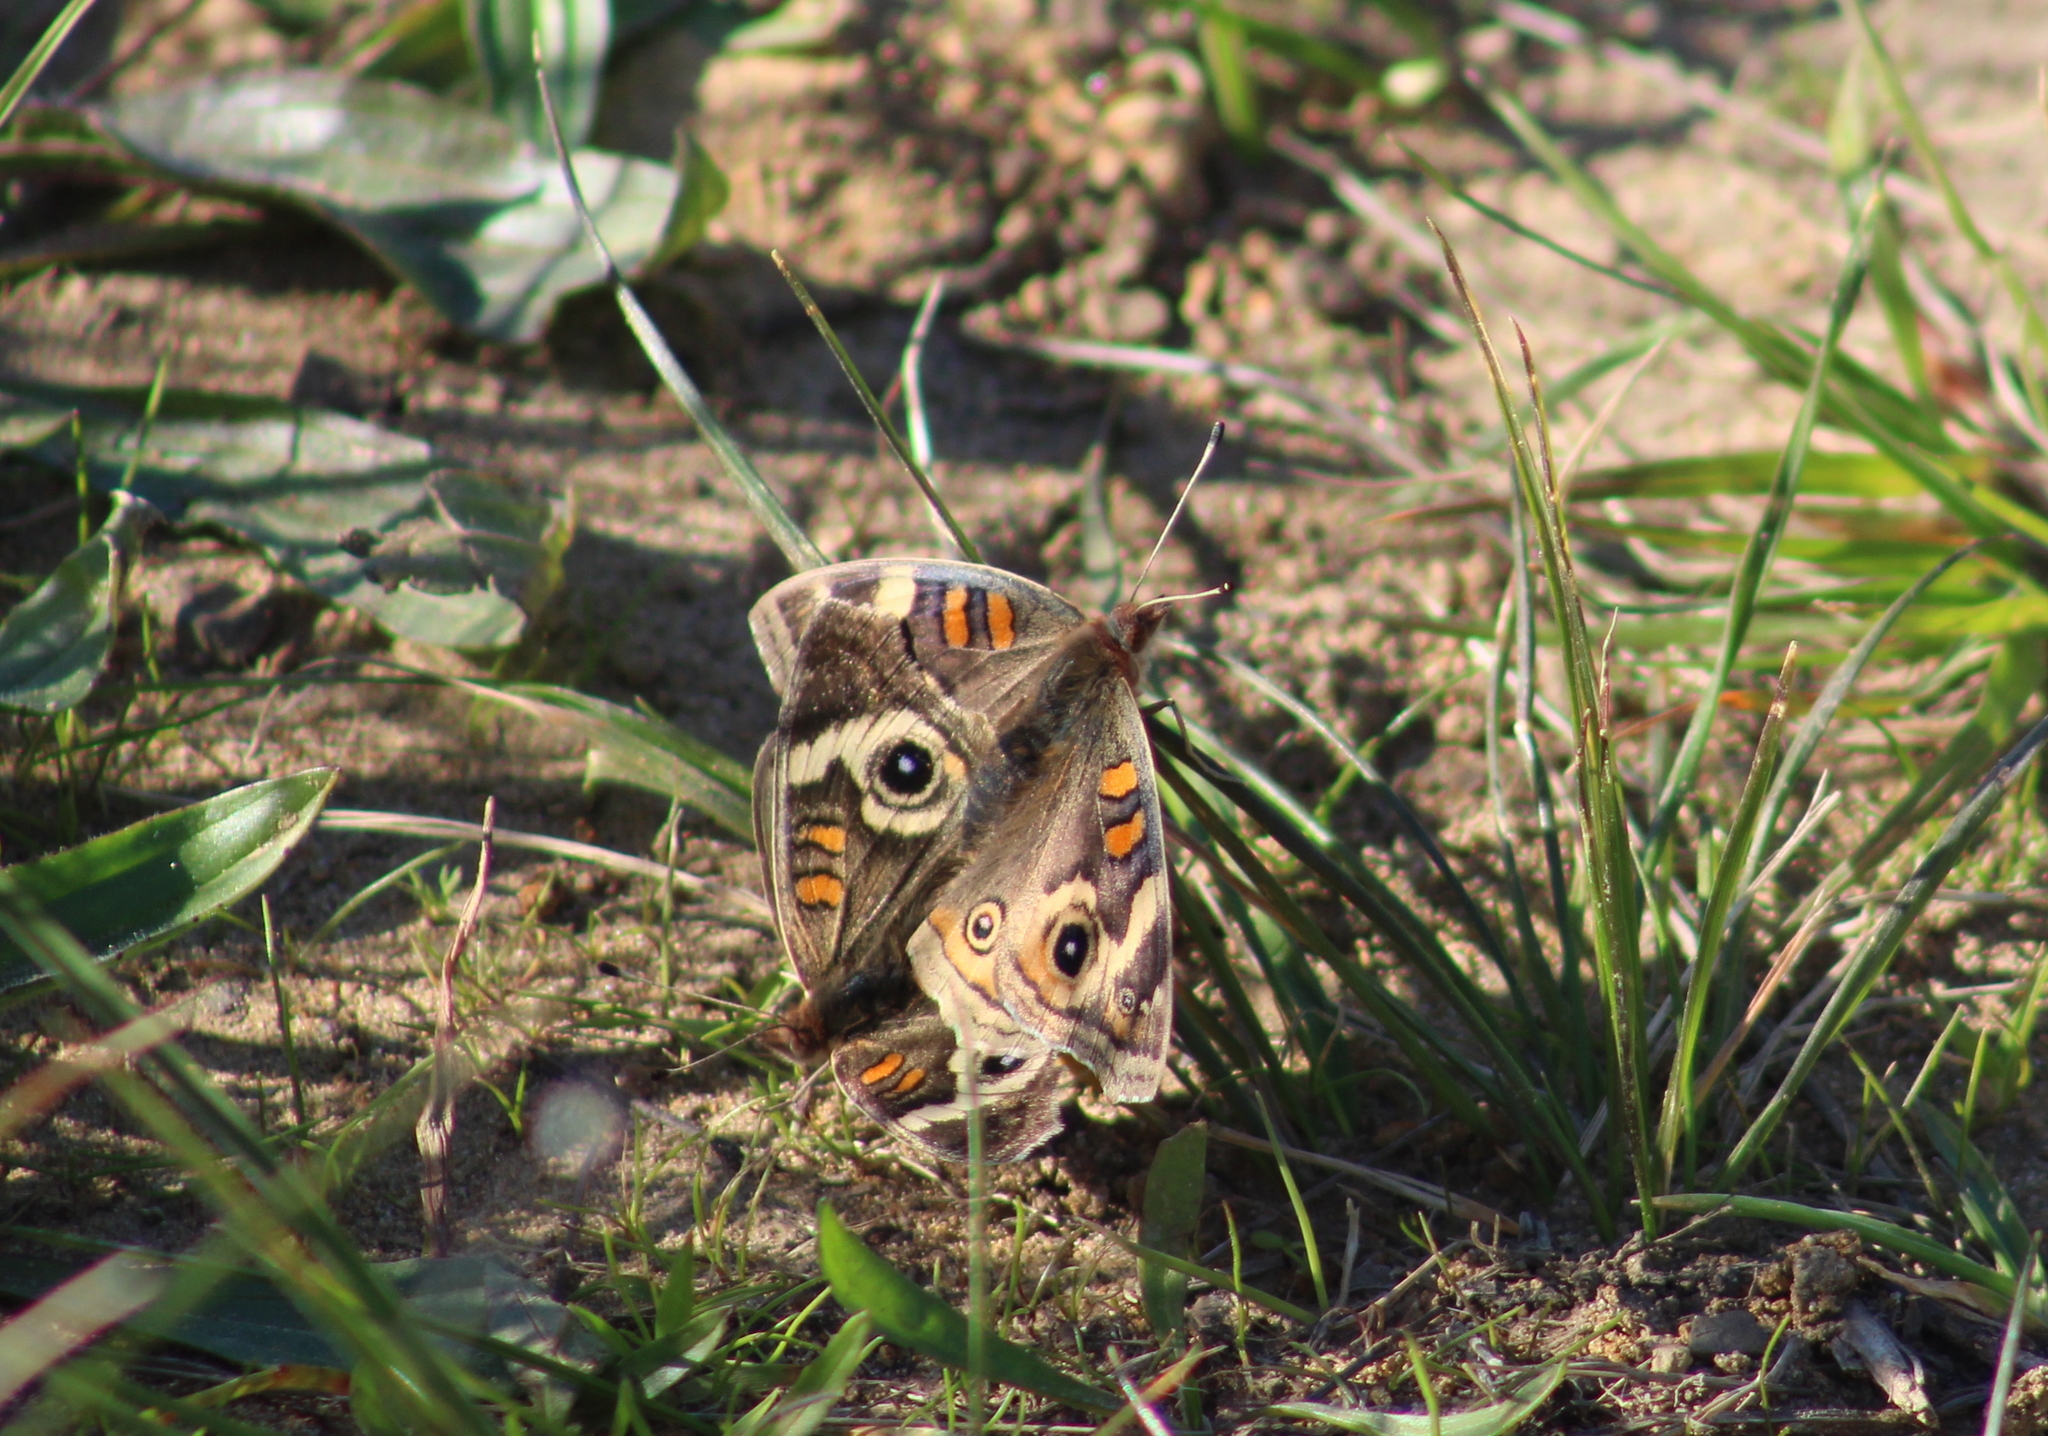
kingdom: Animalia
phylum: Arthropoda
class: Insecta
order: Lepidoptera
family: Nymphalidae
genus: Junonia
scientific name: Junonia grisea
